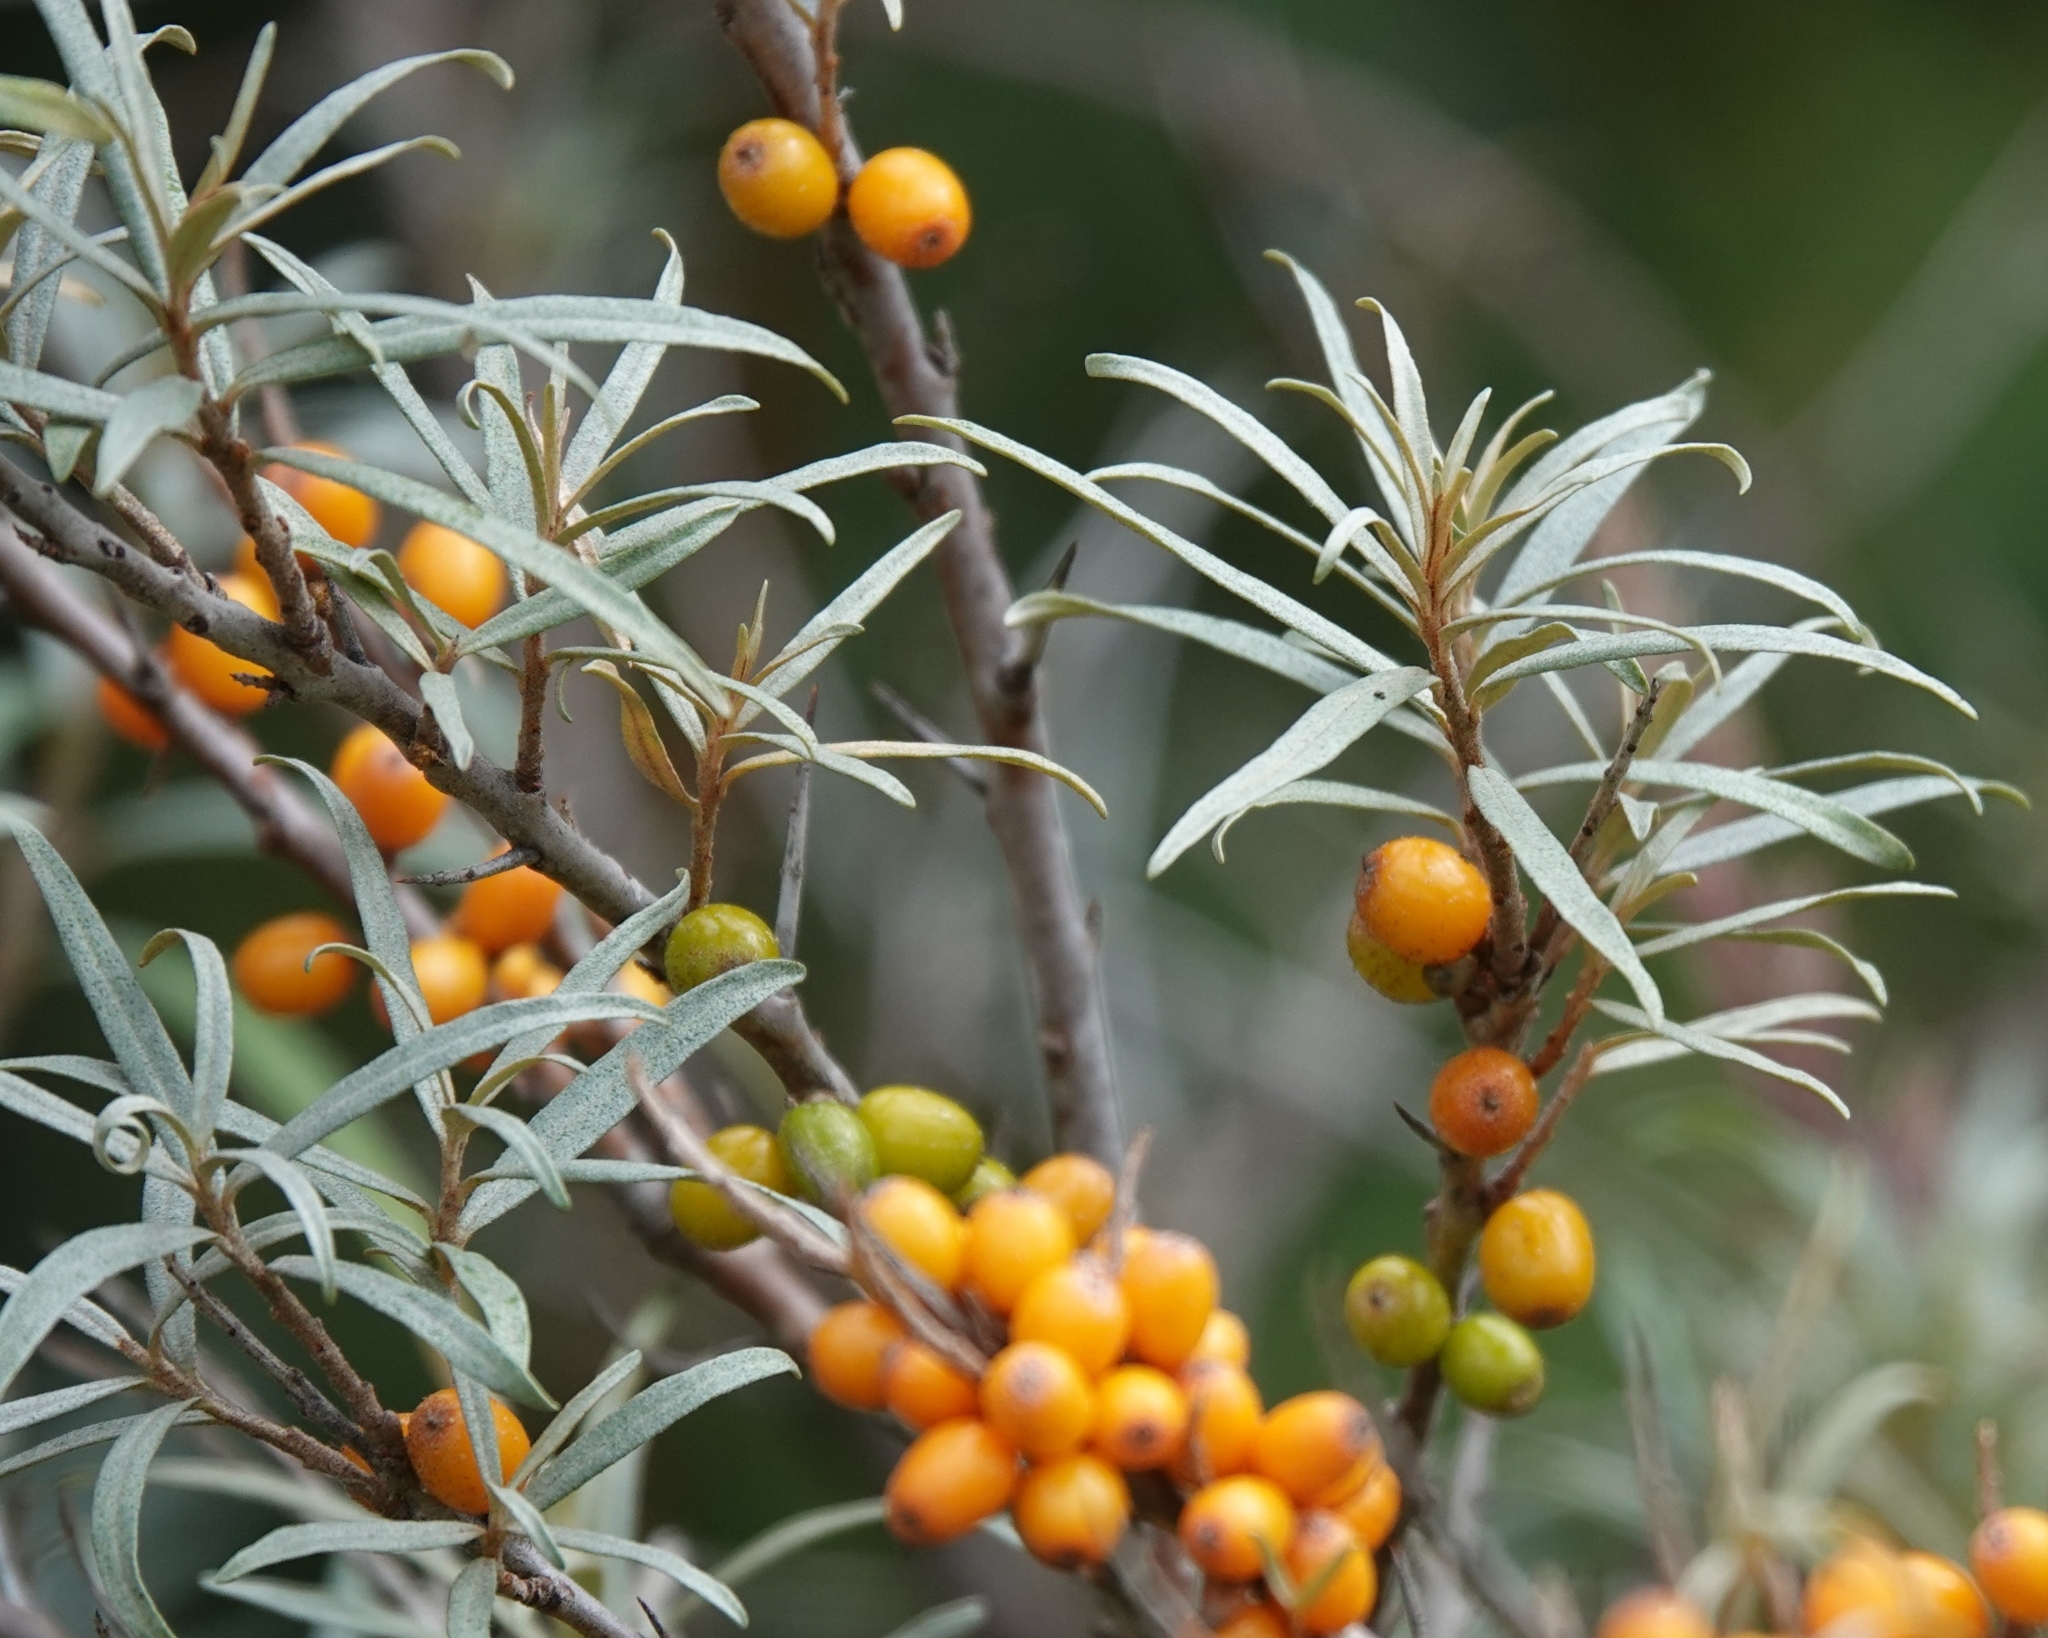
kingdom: Plantae
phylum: Tracheophyta
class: Magnoliopsida
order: Rosales
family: Elaeagnaceae
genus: Hippophae
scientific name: Hippophae rhamnoides
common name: Sea-buckthorn
